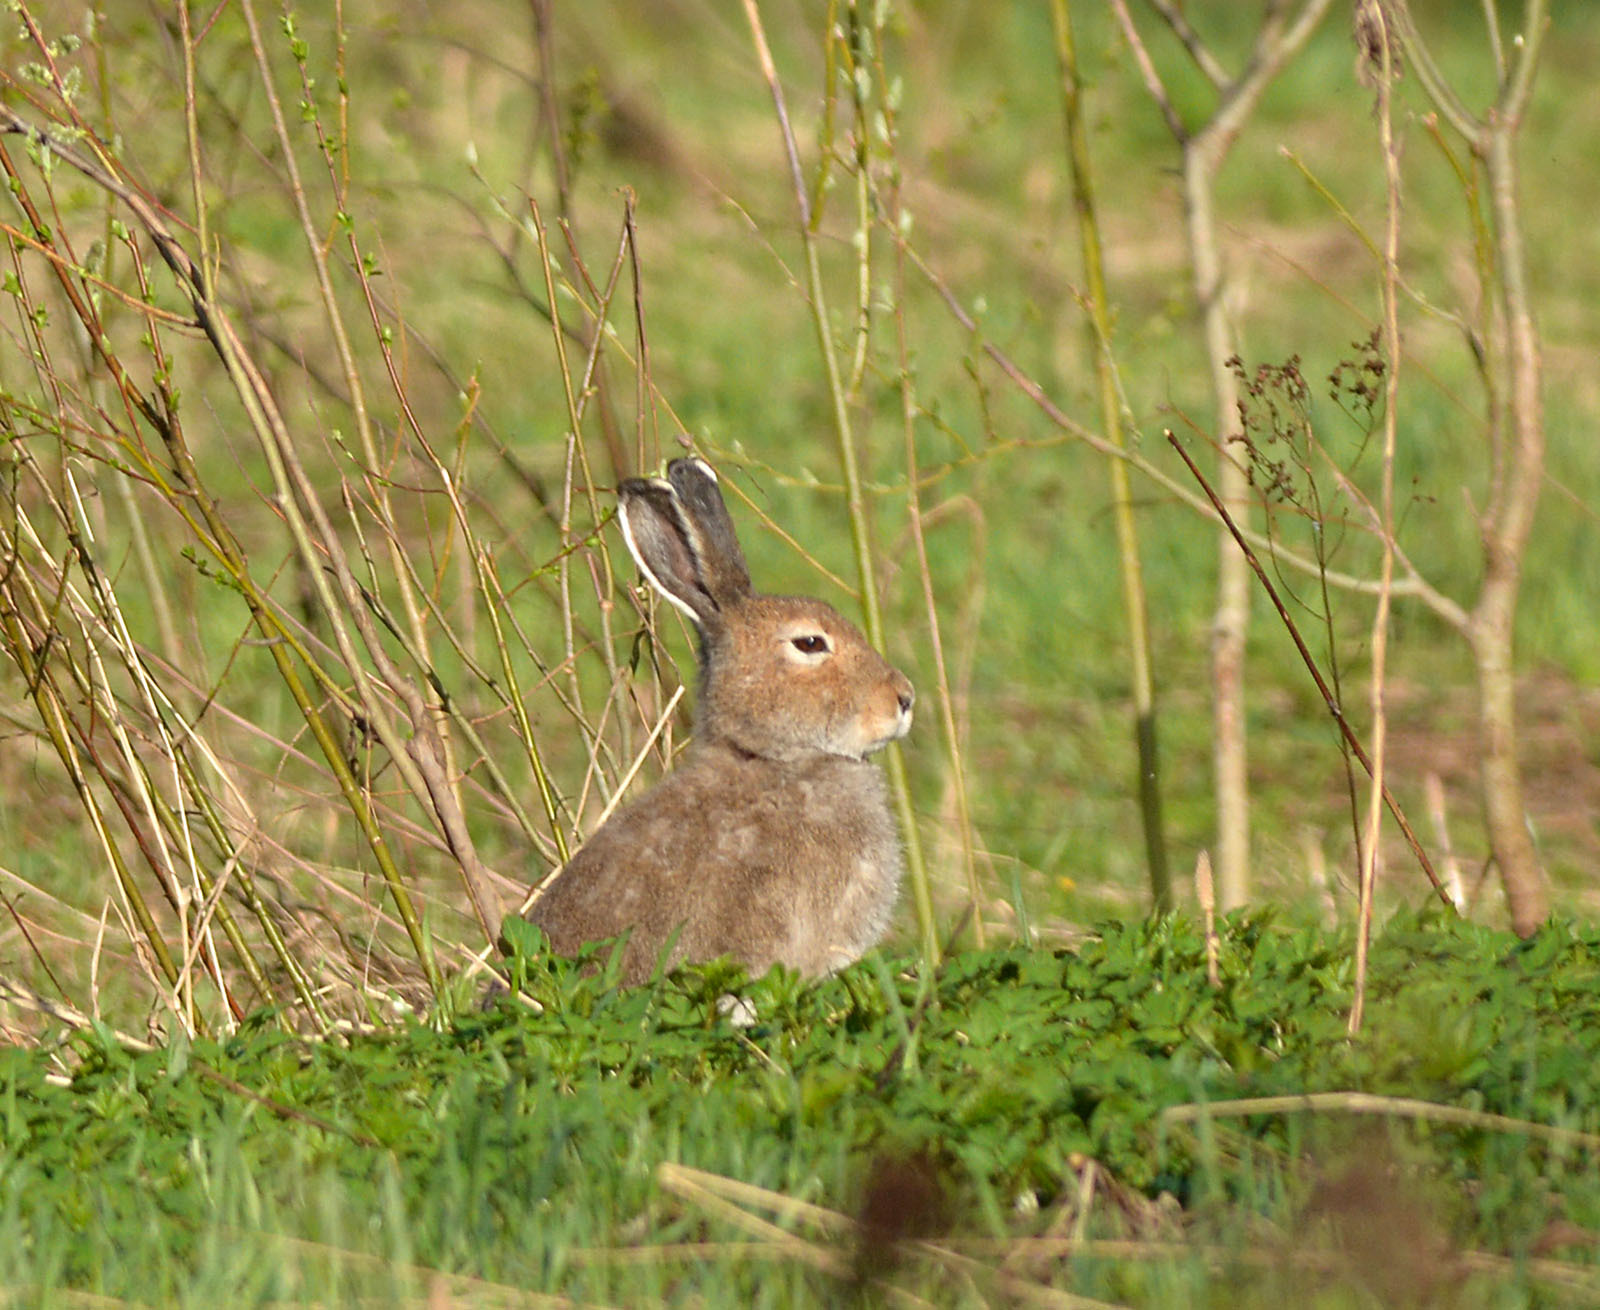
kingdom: Animalia
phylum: Chordata
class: Mammalia
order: Lagomorpha
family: Leporidae
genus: Lepus
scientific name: Lepus timidus
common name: Mountain hare
